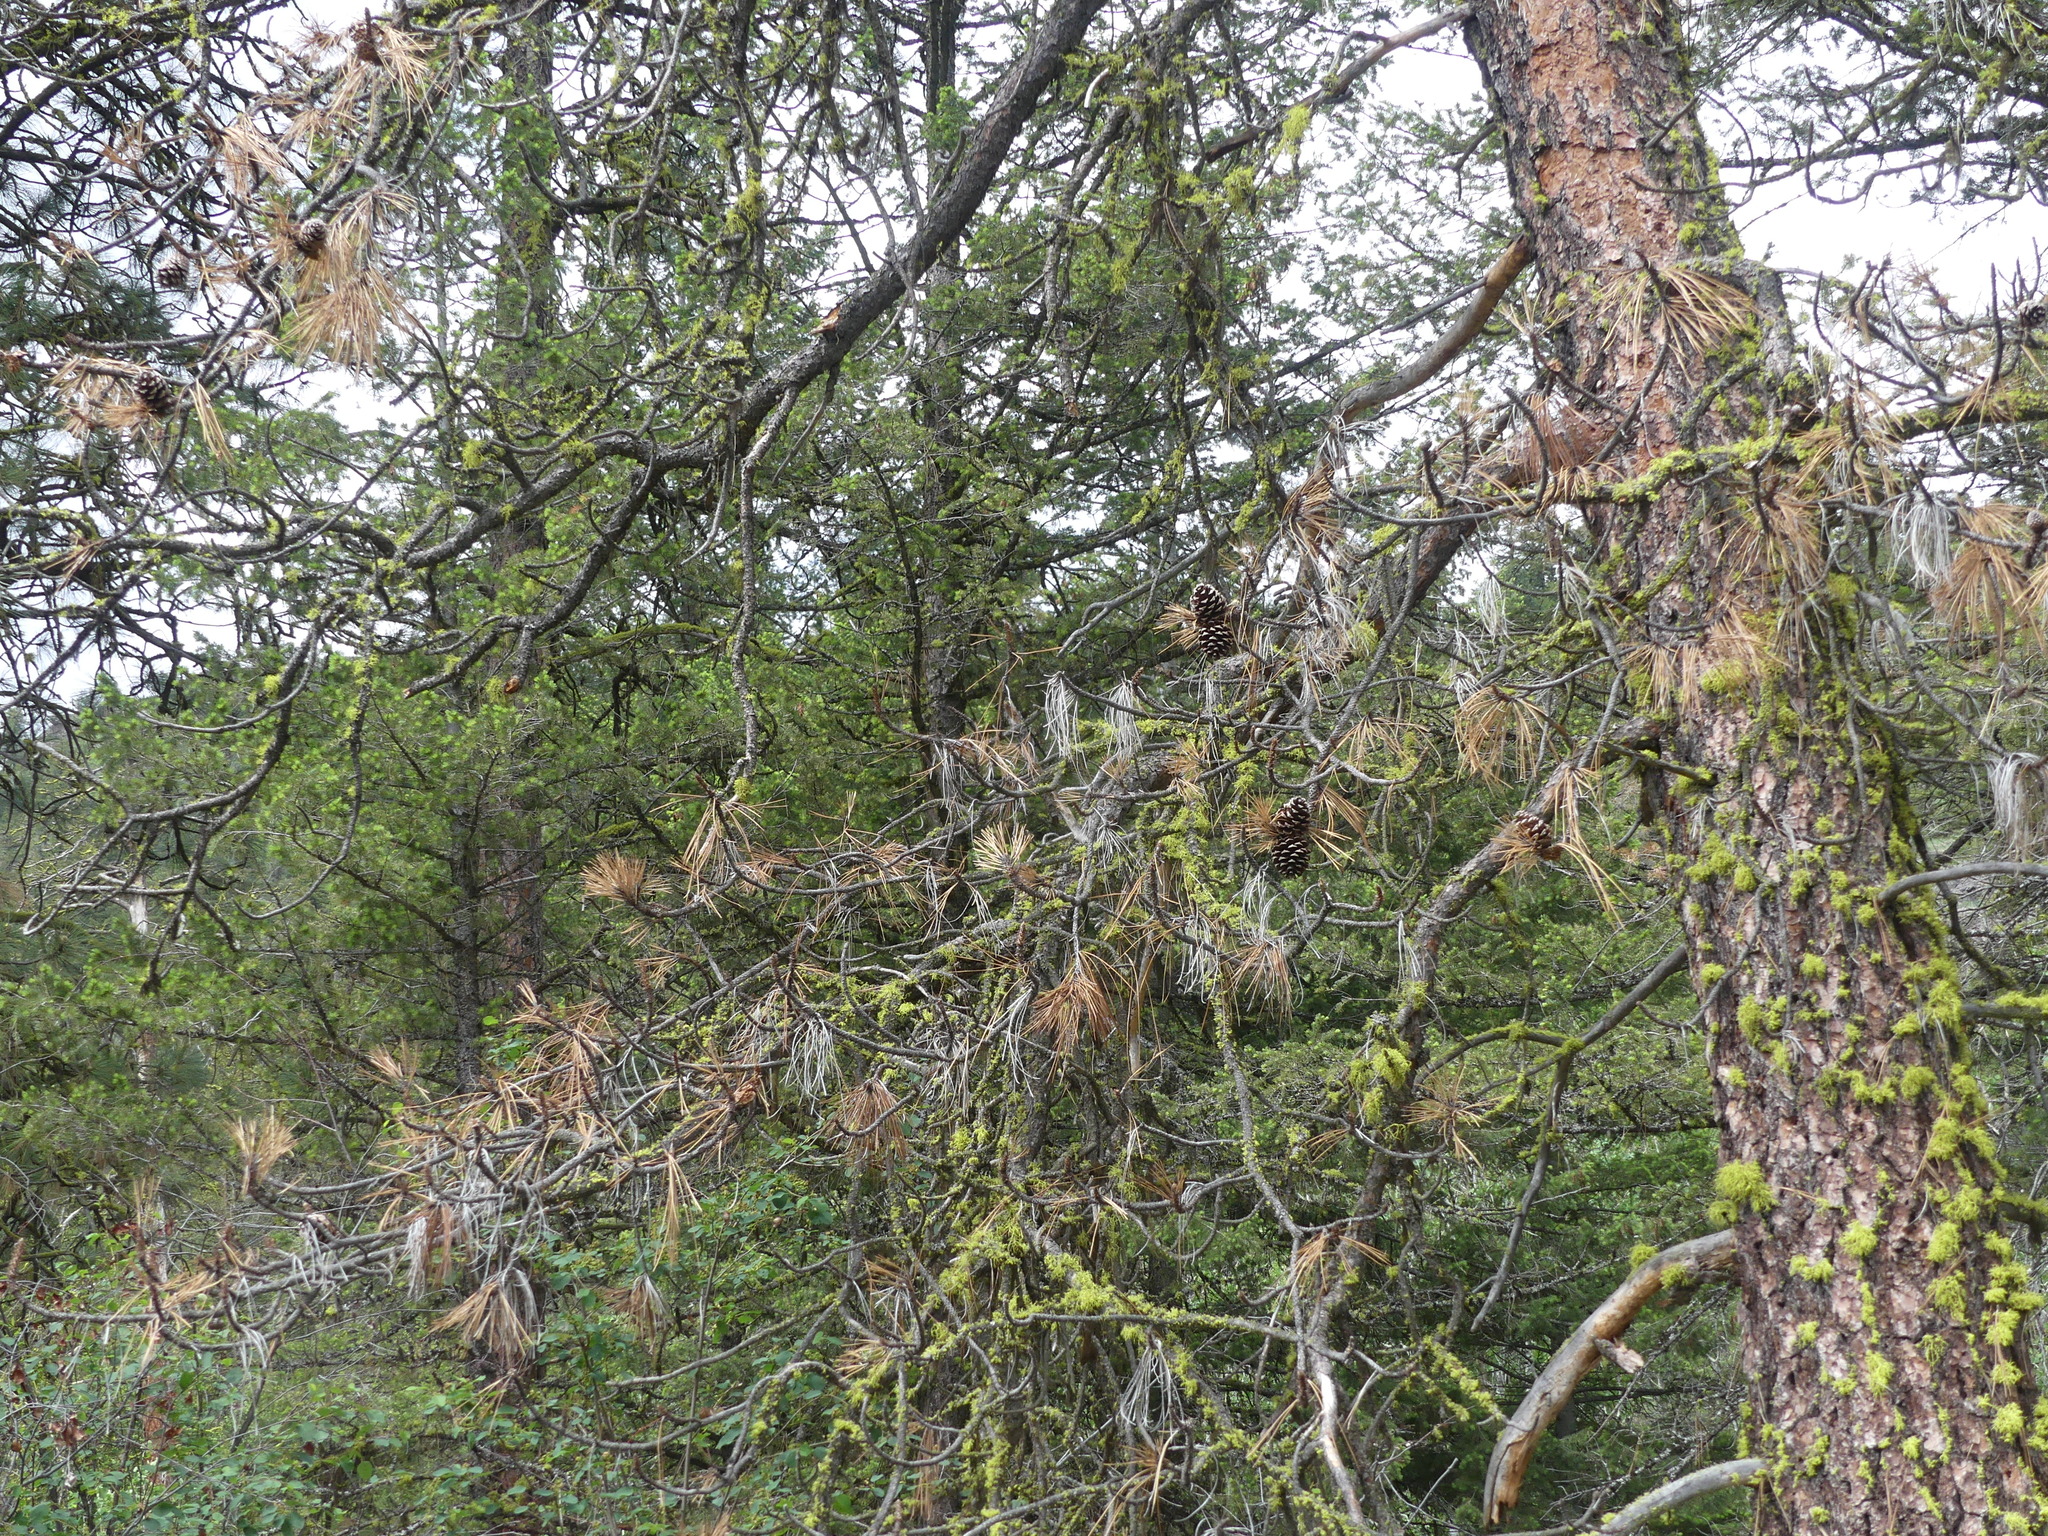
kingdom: Plantae
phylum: Tracheophyta
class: Pinopsida
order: Pinales
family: Pinaceae
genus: Pinus
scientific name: Pinus ponderosa
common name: Western yellow-pine
